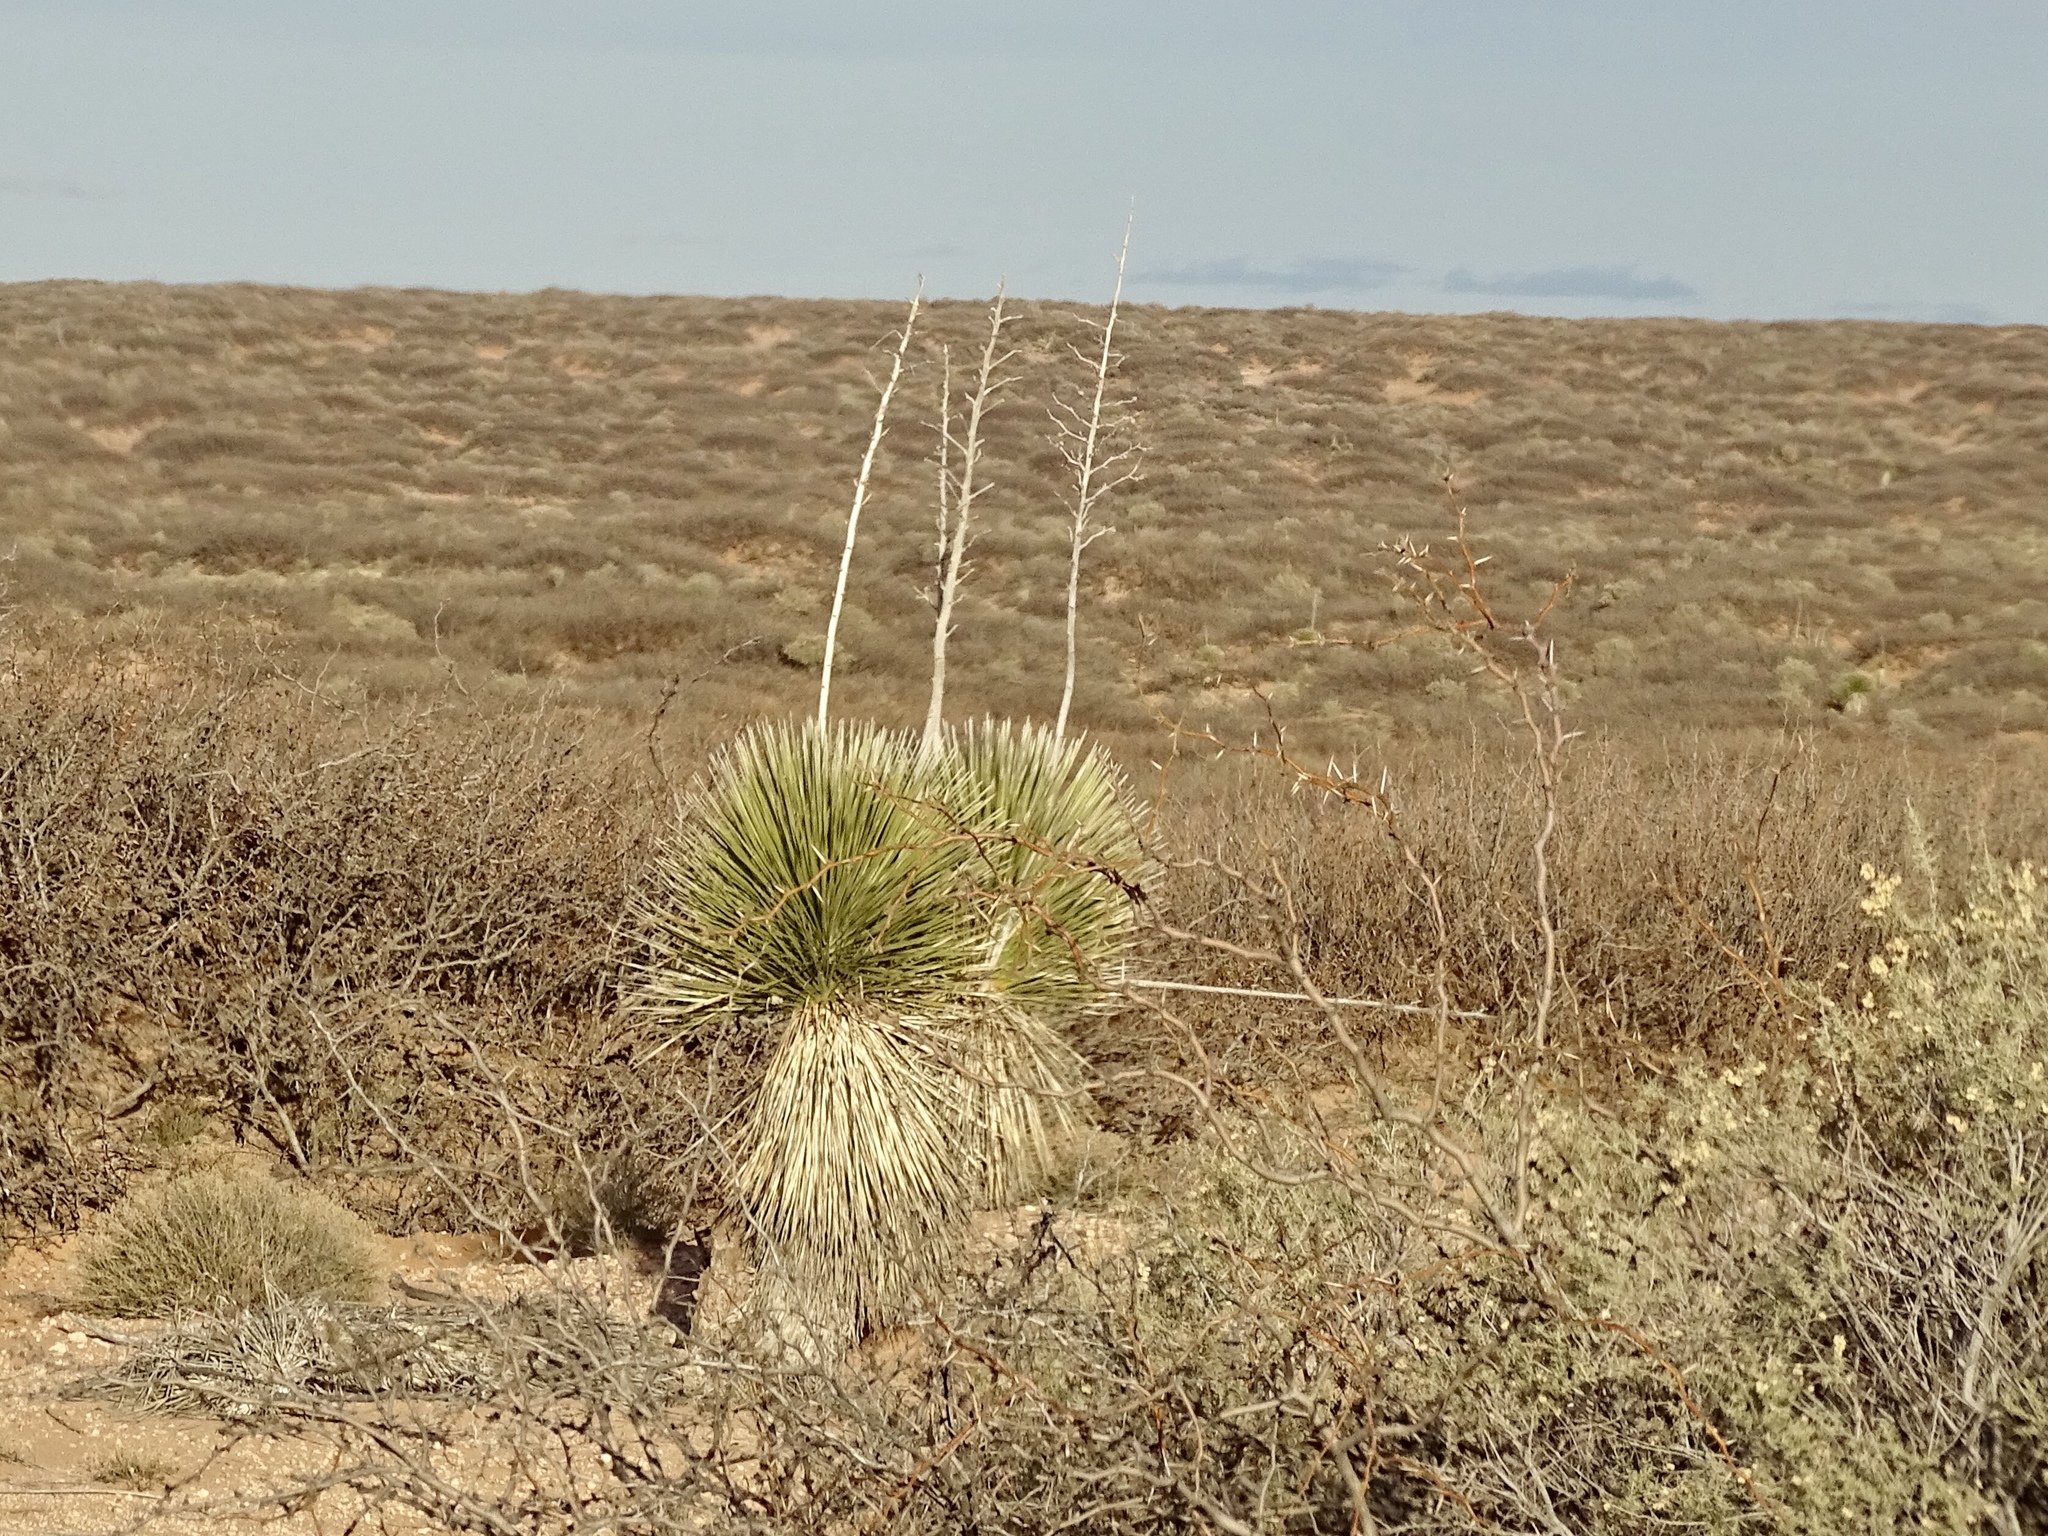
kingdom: Plantae
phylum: Tracheophyta
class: Liliopsida
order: Asparagales
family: Asparagaceae
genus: Yucca
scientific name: Yucca elata
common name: Palmella
